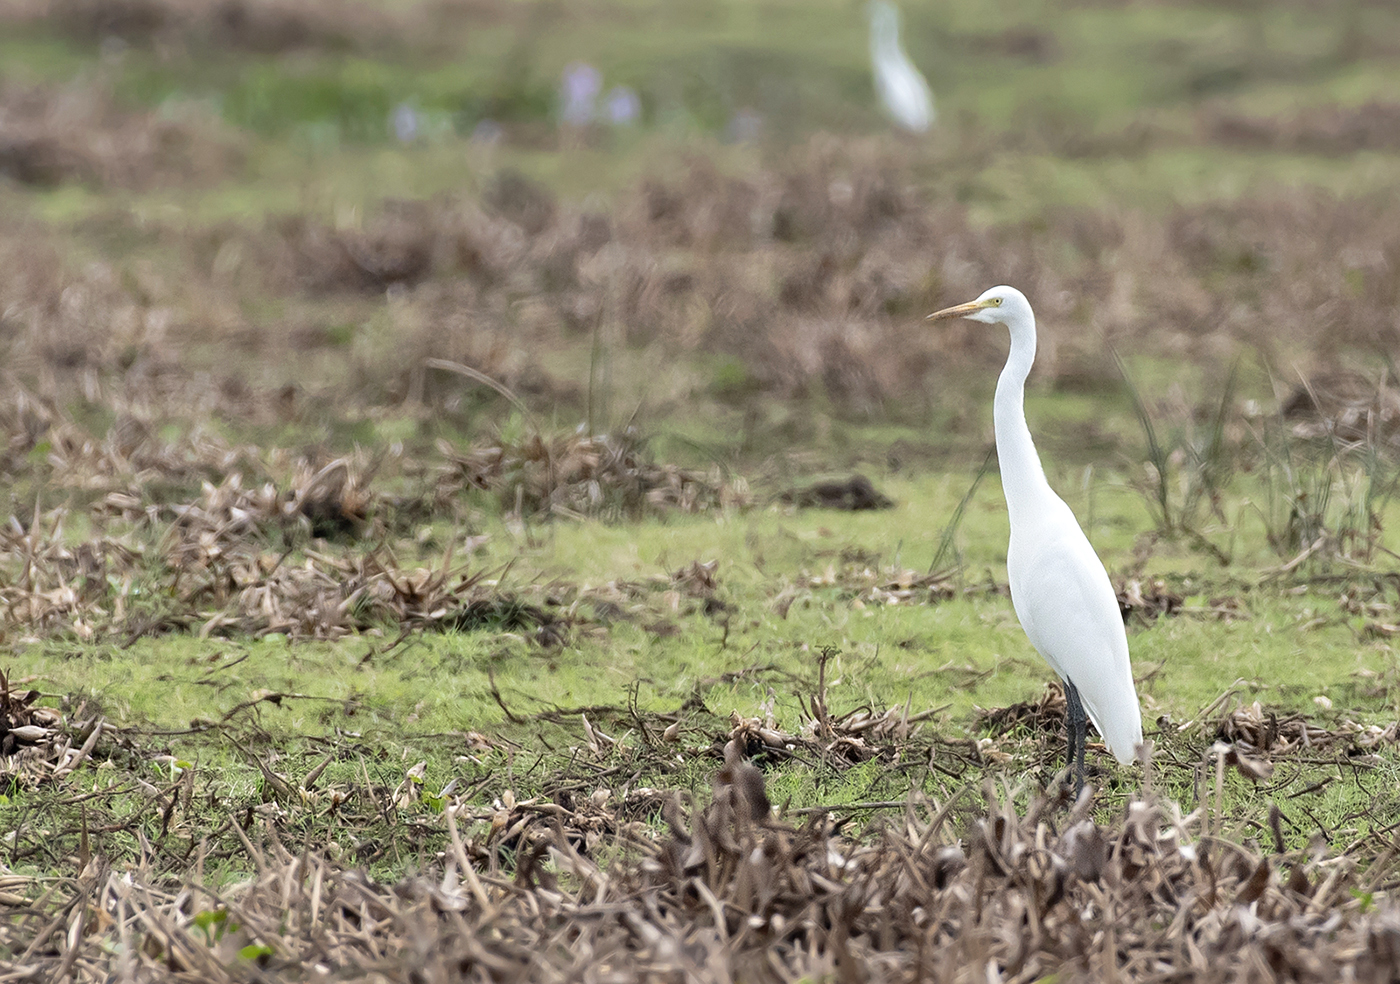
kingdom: Animalia
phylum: Chordata
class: Aves
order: Pelecaniformes
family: Ardeidae
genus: Egretta
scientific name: Egretta intermedia
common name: Intermediate egret
